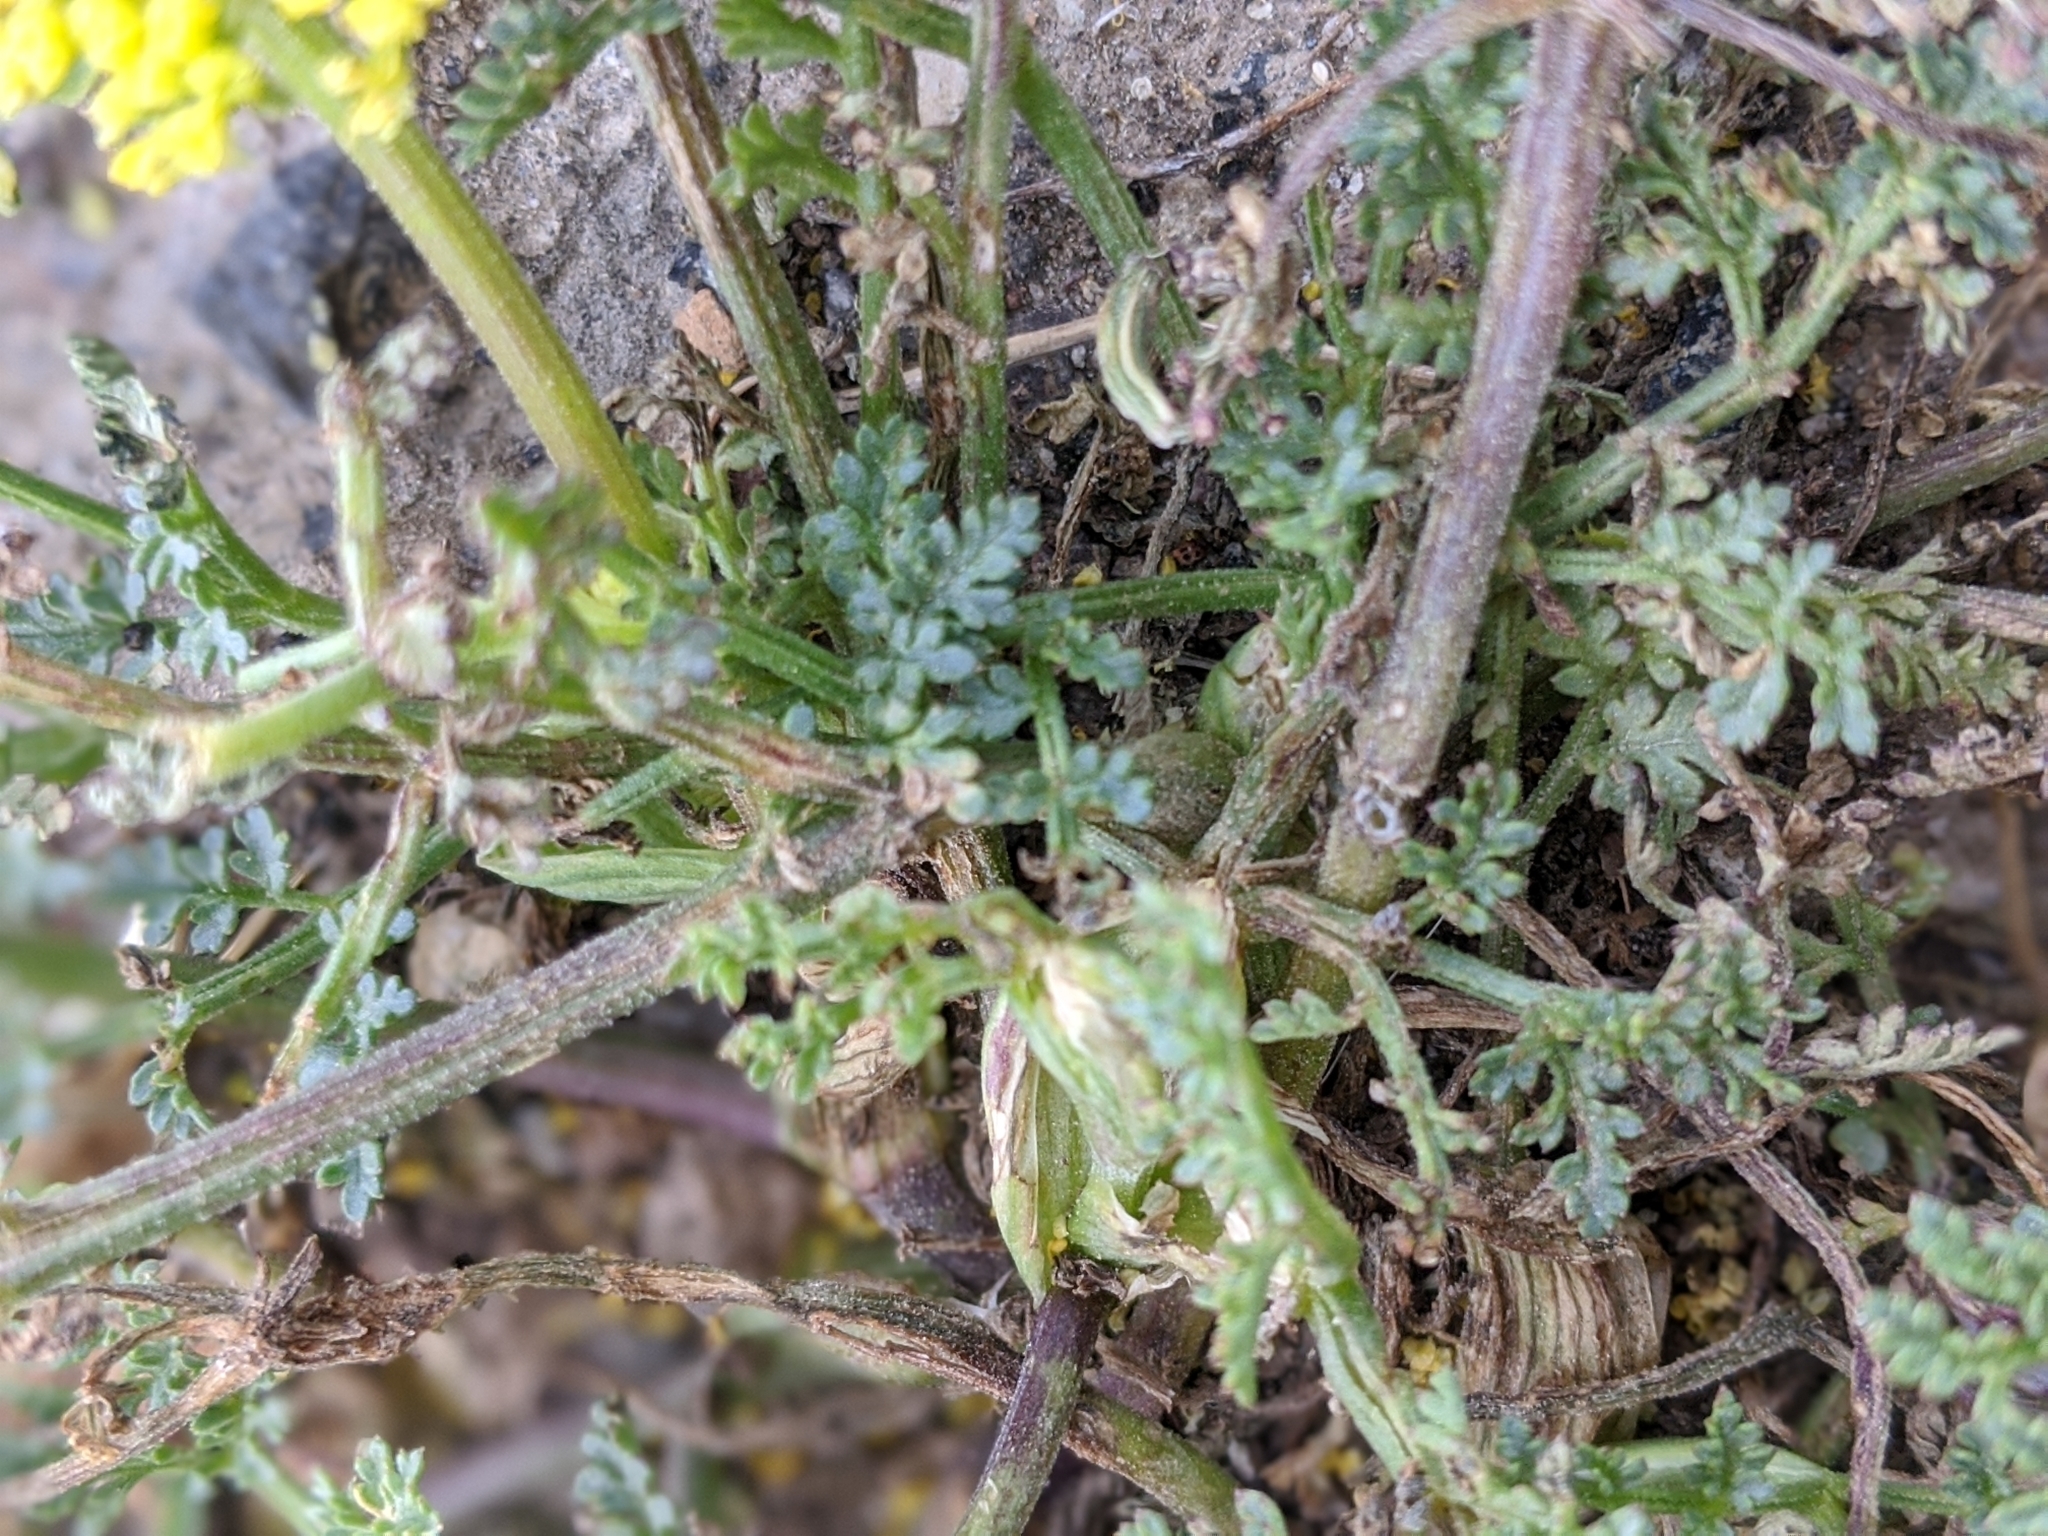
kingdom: Plantae
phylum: Tracheophyta
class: Magnoliopsida
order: Apiales
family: Apiaceae
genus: Pteryxia
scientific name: Pteryxia terebinthina
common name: Turpentine wavewing
